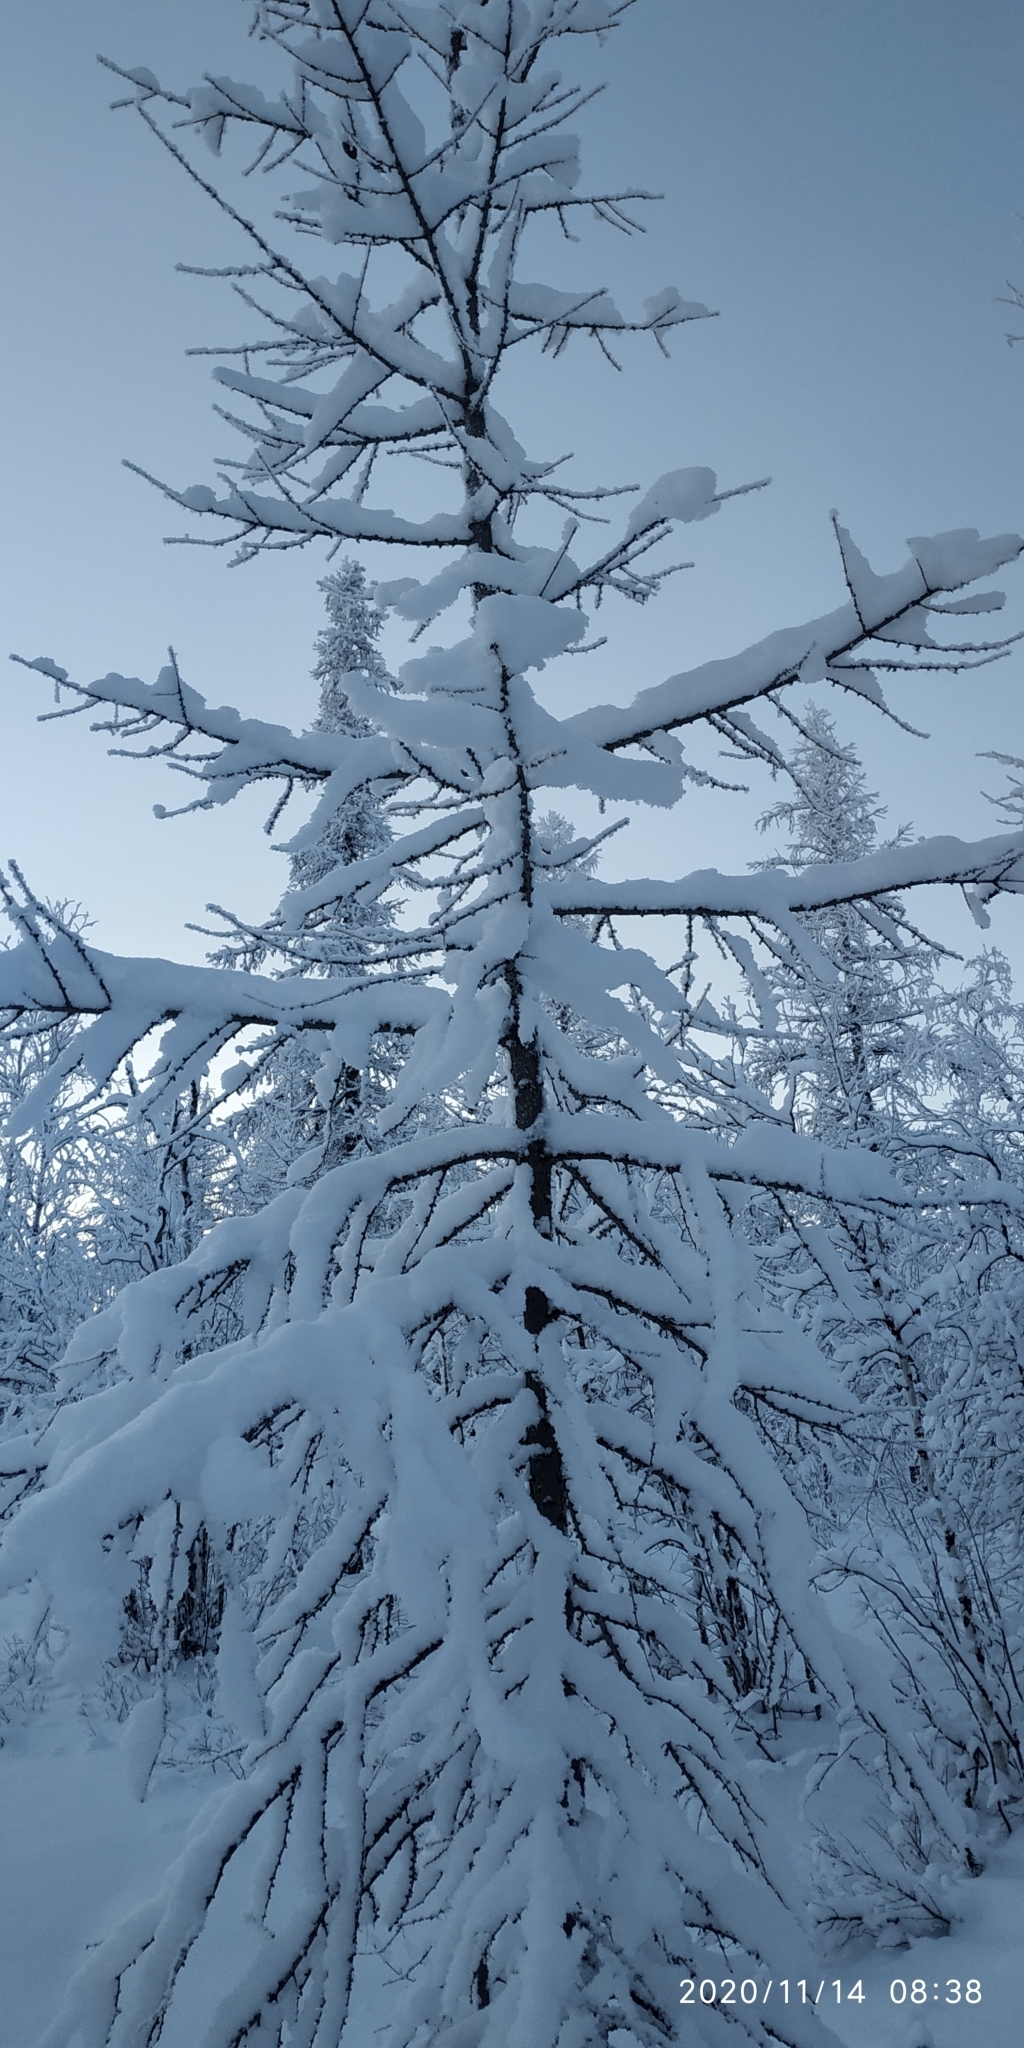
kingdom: Plantae
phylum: Tracheophyta
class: Pinopsida
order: Pinales
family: Pinaceae
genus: Larix
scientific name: Larix sibirica
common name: Siberian larch
